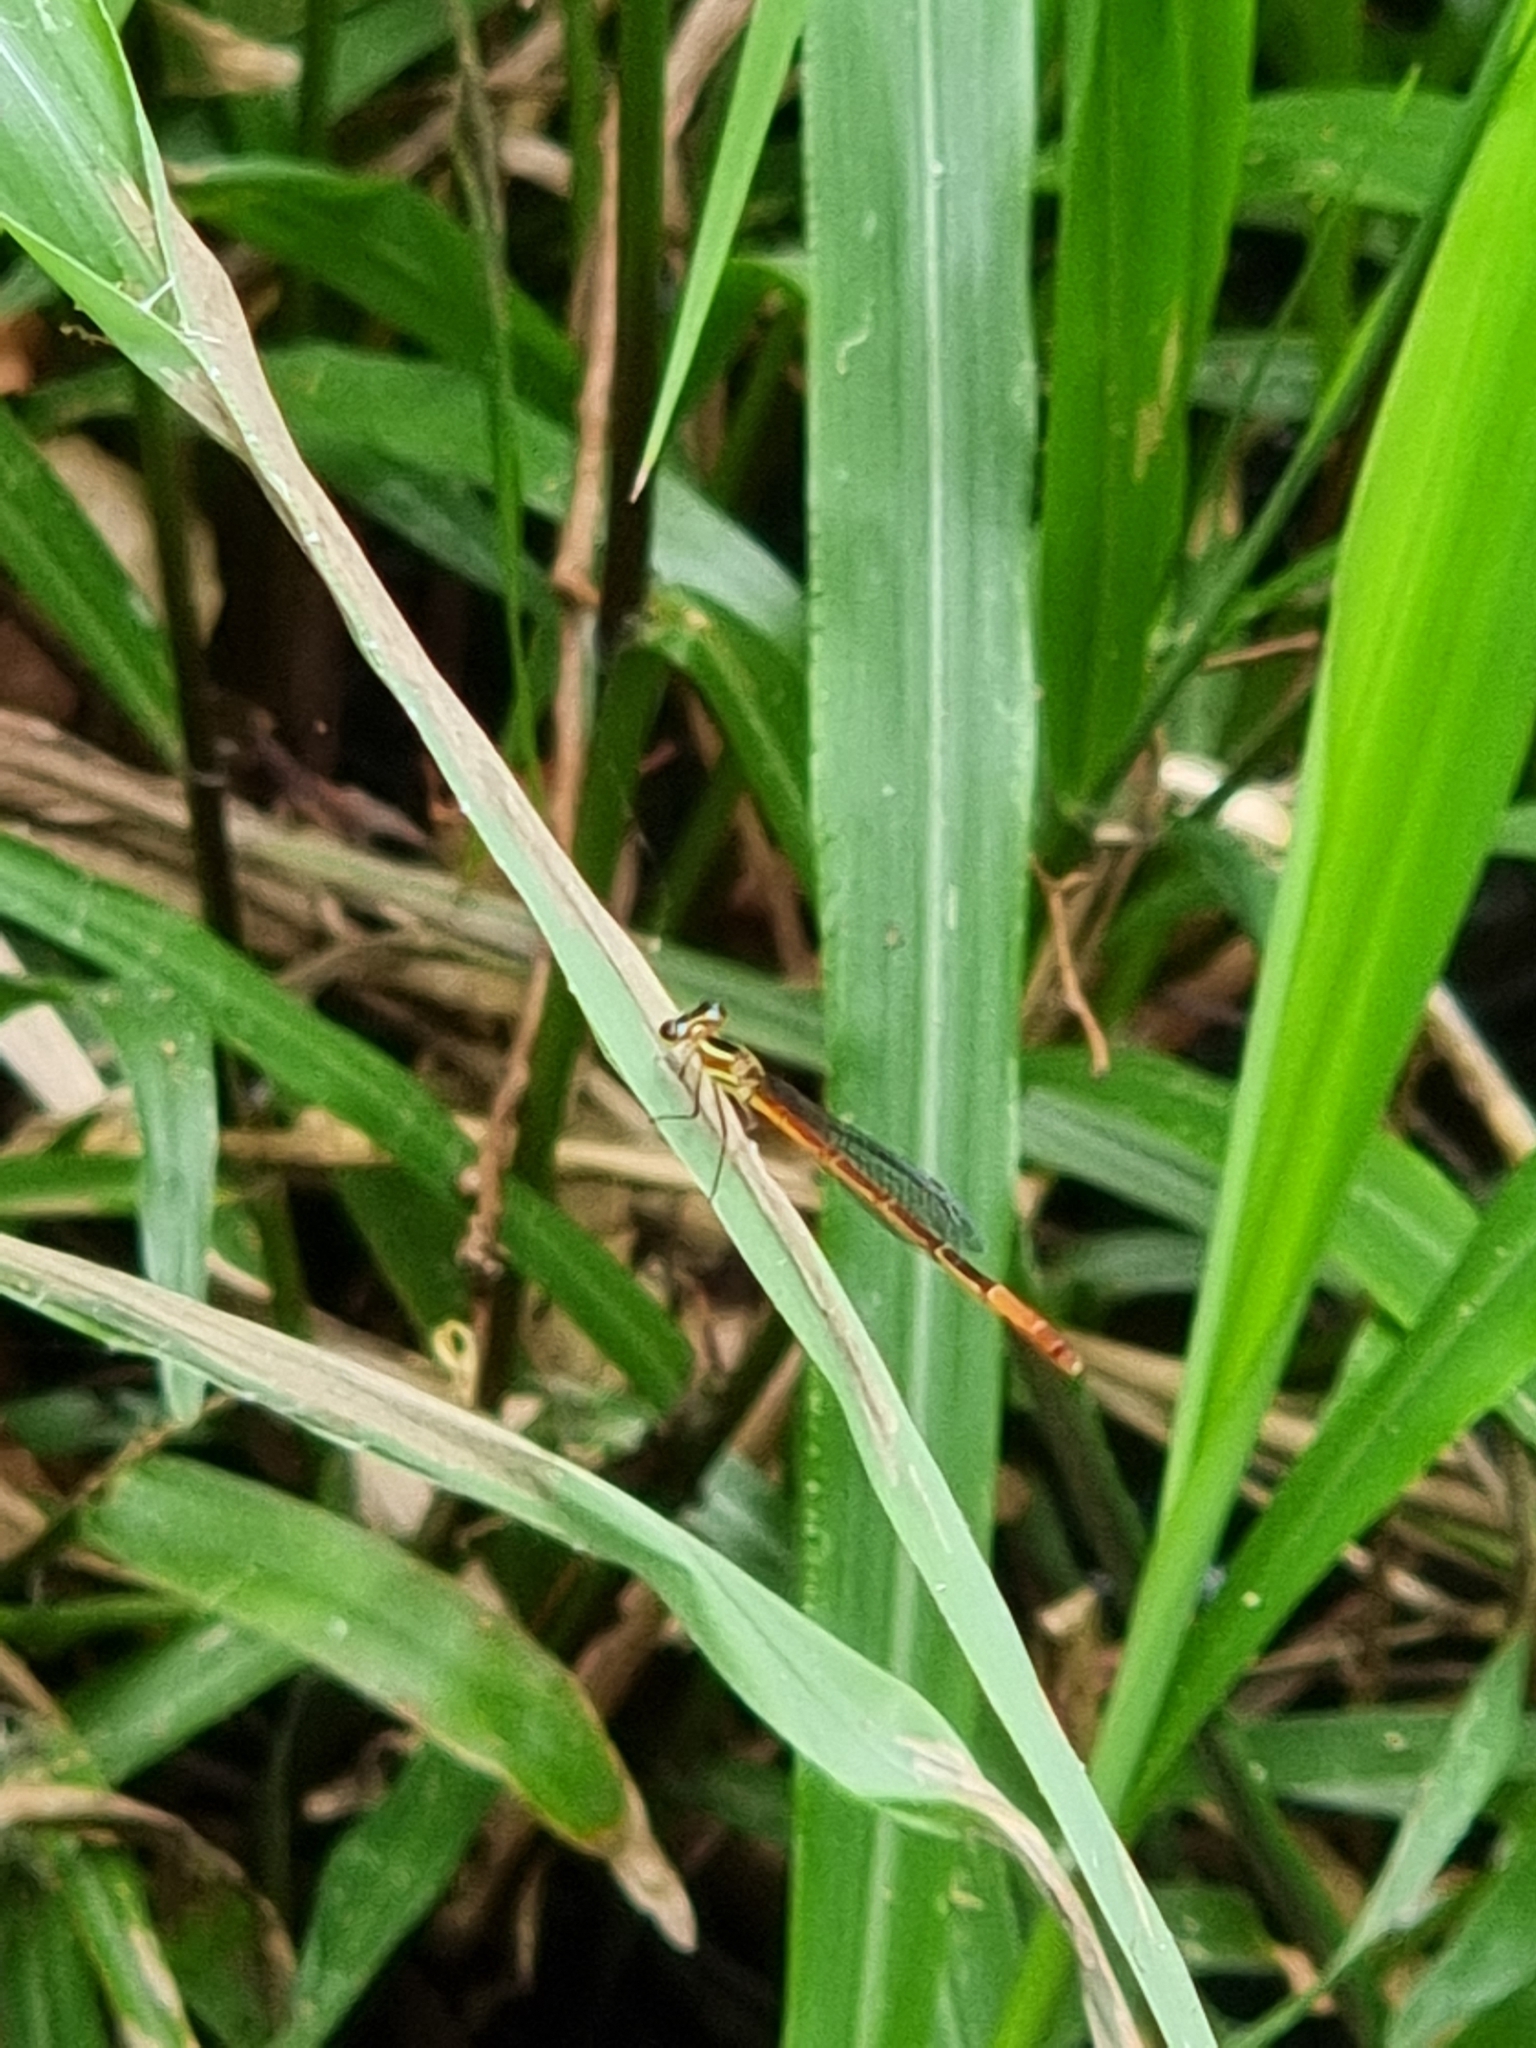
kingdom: Animalia
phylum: Arthropoda
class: Insecta
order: Odonata
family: Coenagrionidae
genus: Argiocnemis
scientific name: Argiocnemis rubescens
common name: Red-tipped shadefly
